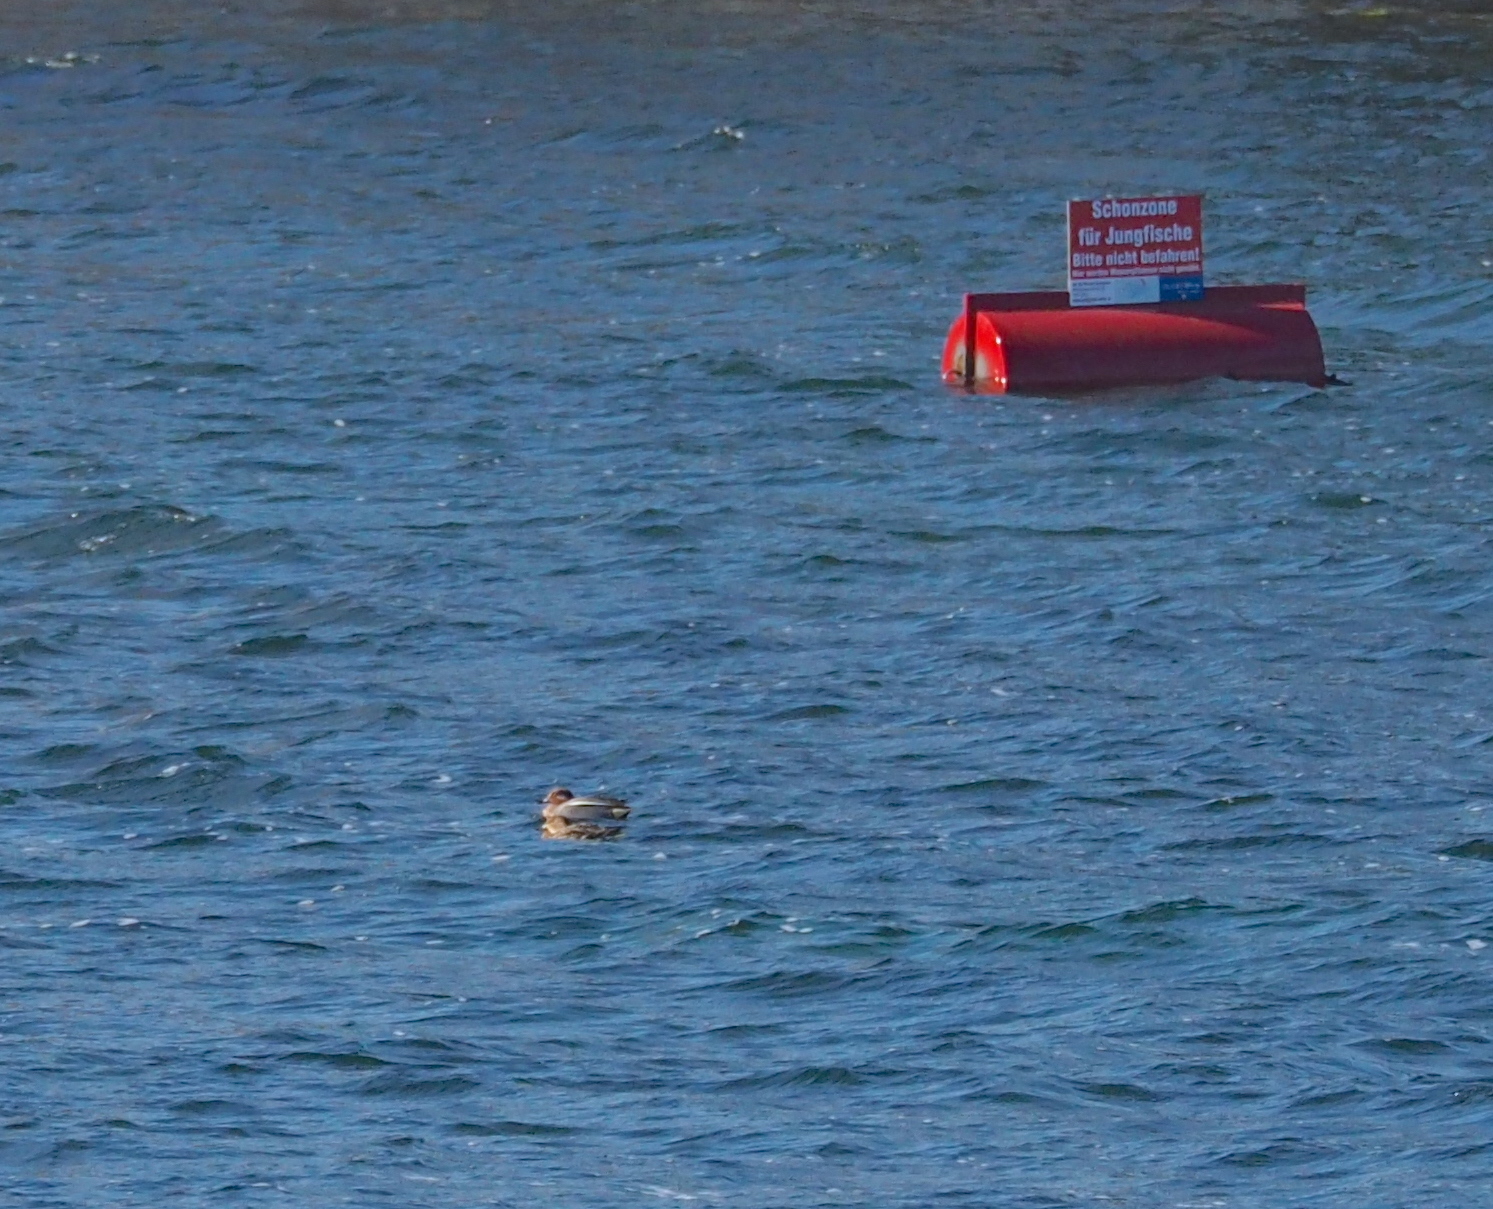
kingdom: Animalia
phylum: Chordata
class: Aves
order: Anseriformes
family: Anatidae
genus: Anas
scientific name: Anas crecca
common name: Eurasian teal
